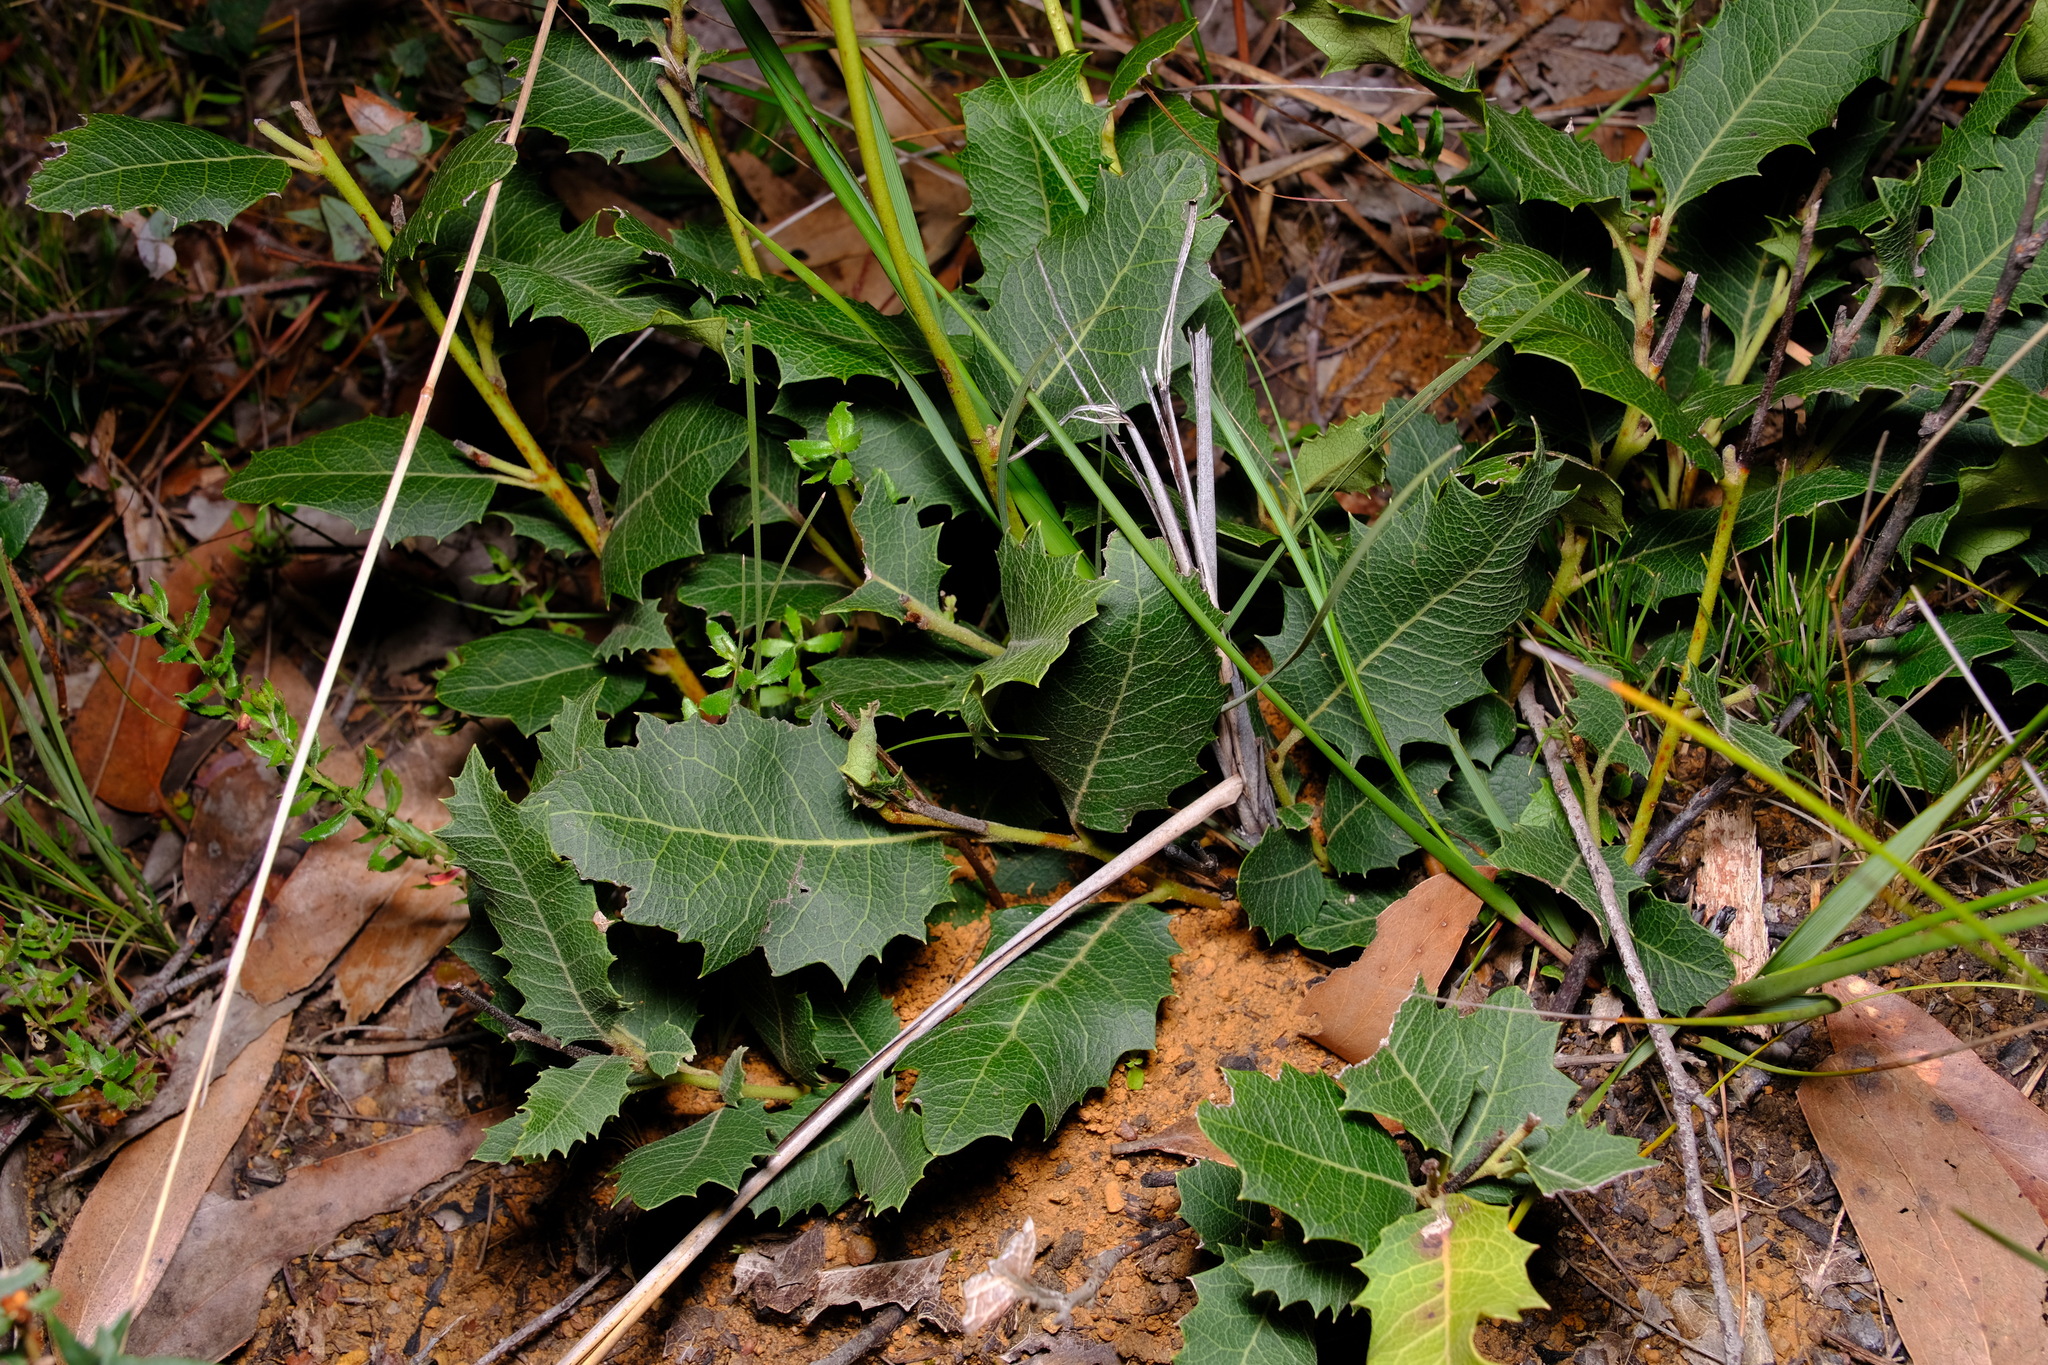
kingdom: Plantae
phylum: Tracheophyta
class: Magnoliopsida
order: Proteales
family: Proteaceae
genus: Lomatia
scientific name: Lomatia ilicifolia
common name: Native-holly
